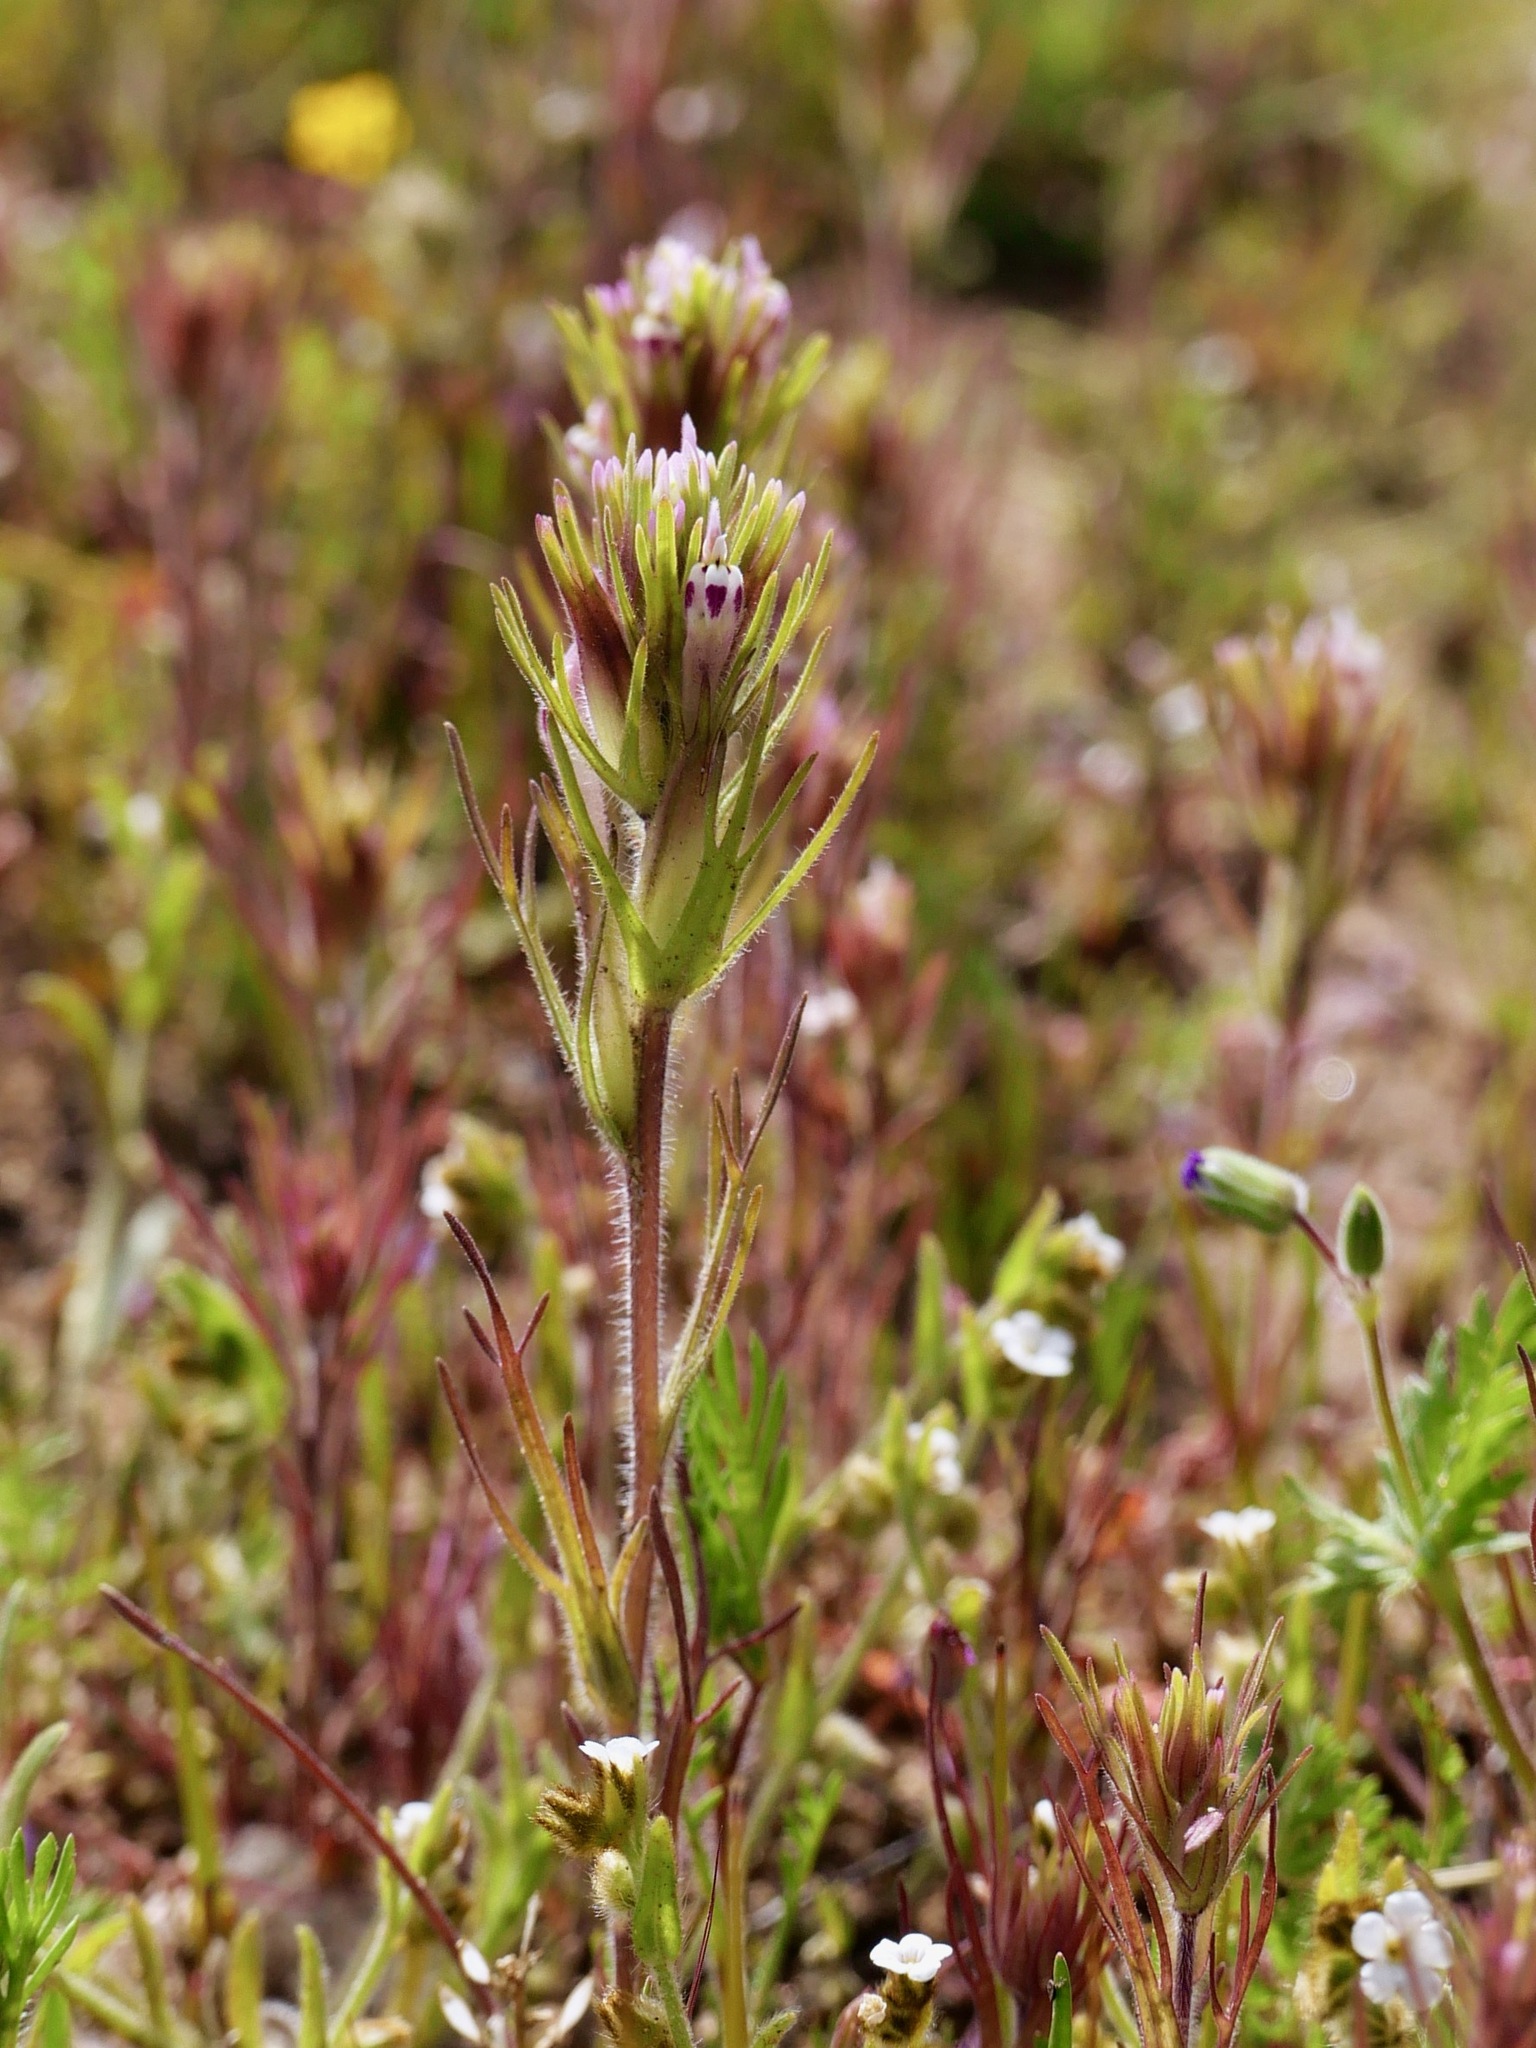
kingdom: Plantae
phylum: Tracheophyta
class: Magnoliopsida
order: Lamiales
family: Orobanchaceae
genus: Castilleja
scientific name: Castilleja attenuata
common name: Valley tassels
